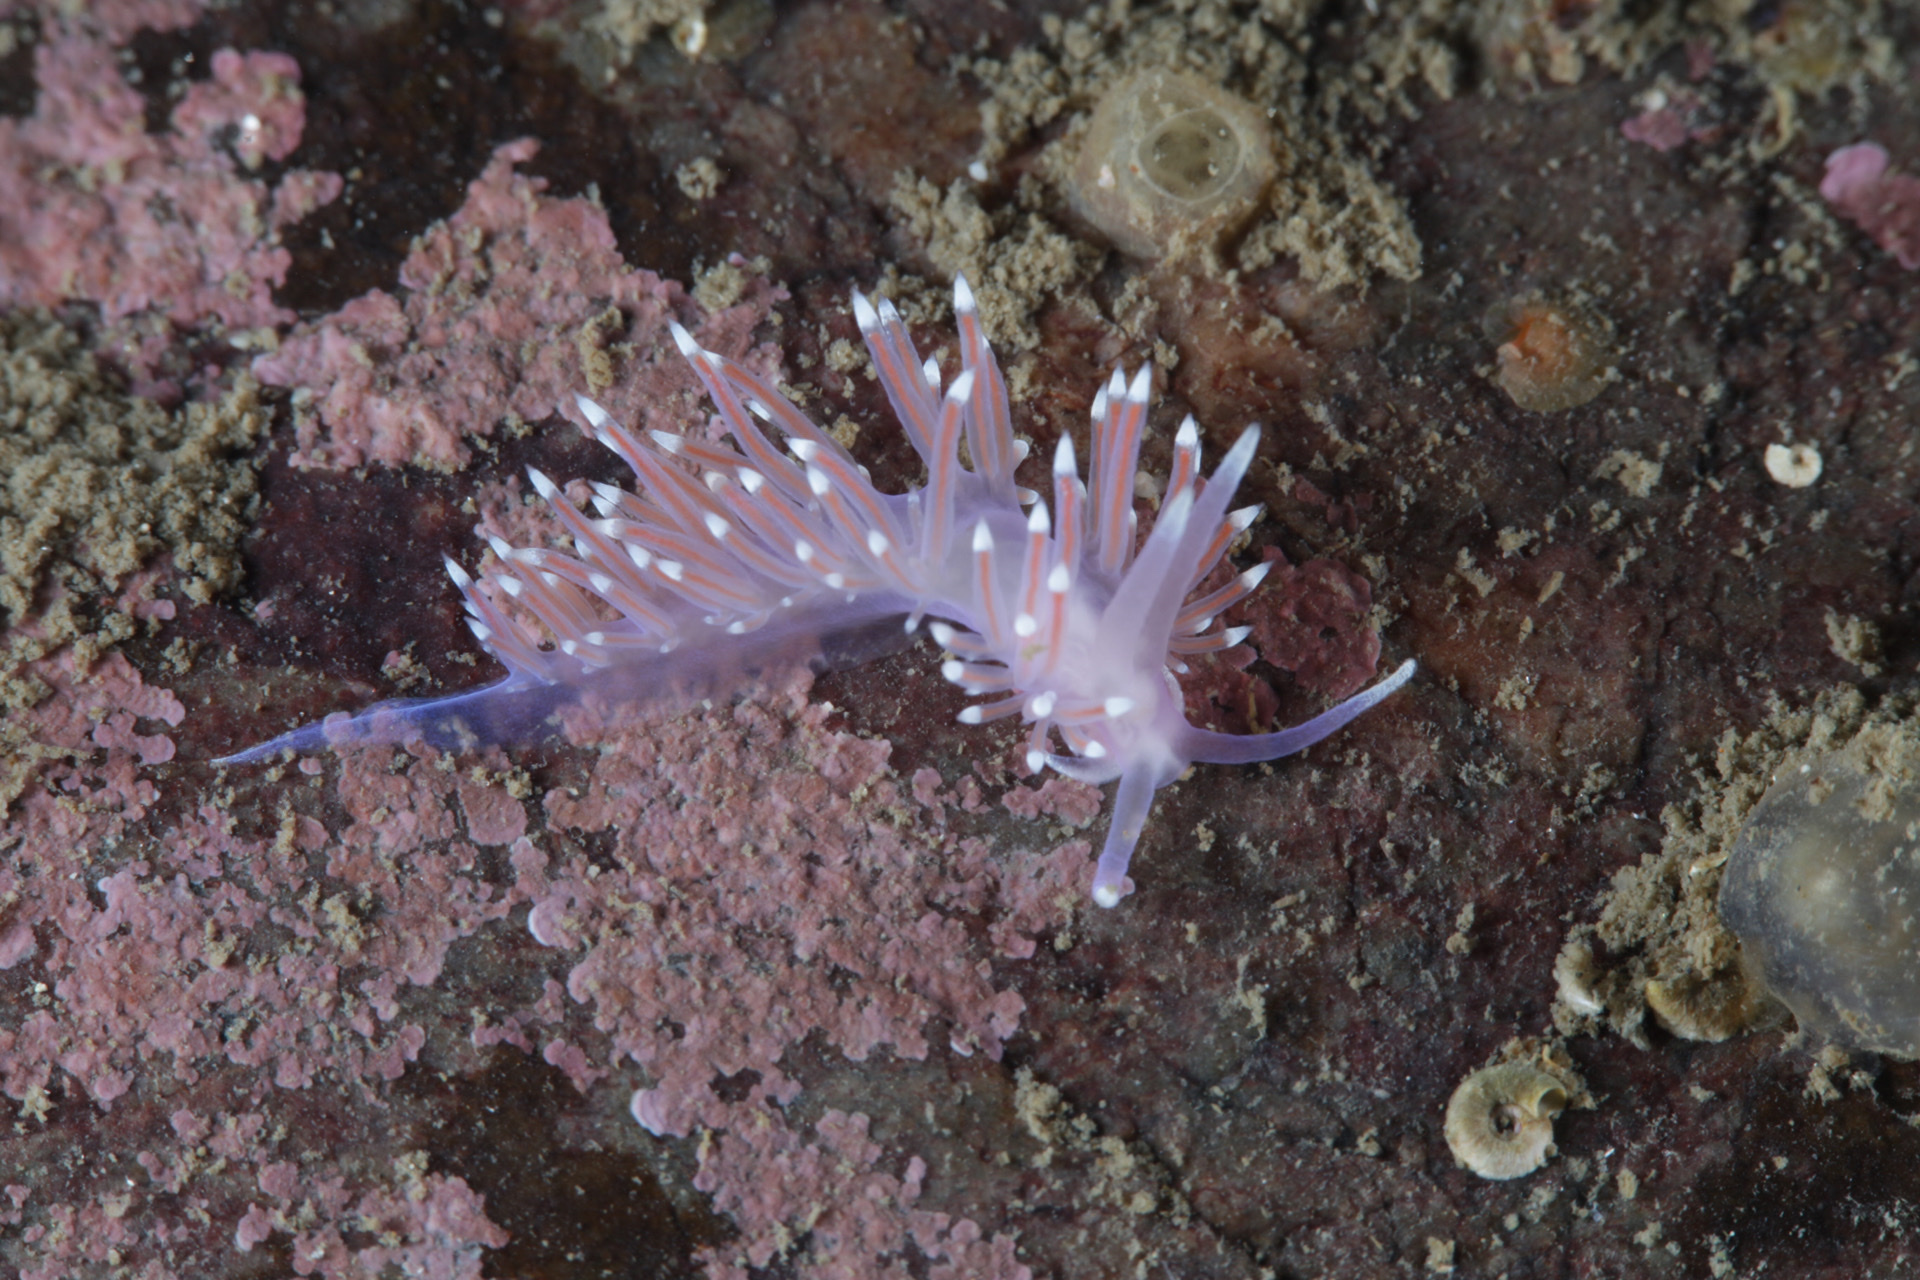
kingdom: Animalia
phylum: Mollusca
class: Gastropoda
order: Nudibranchia
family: Flabellinidae
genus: Edmundsella
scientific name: Edmundsella pedata
